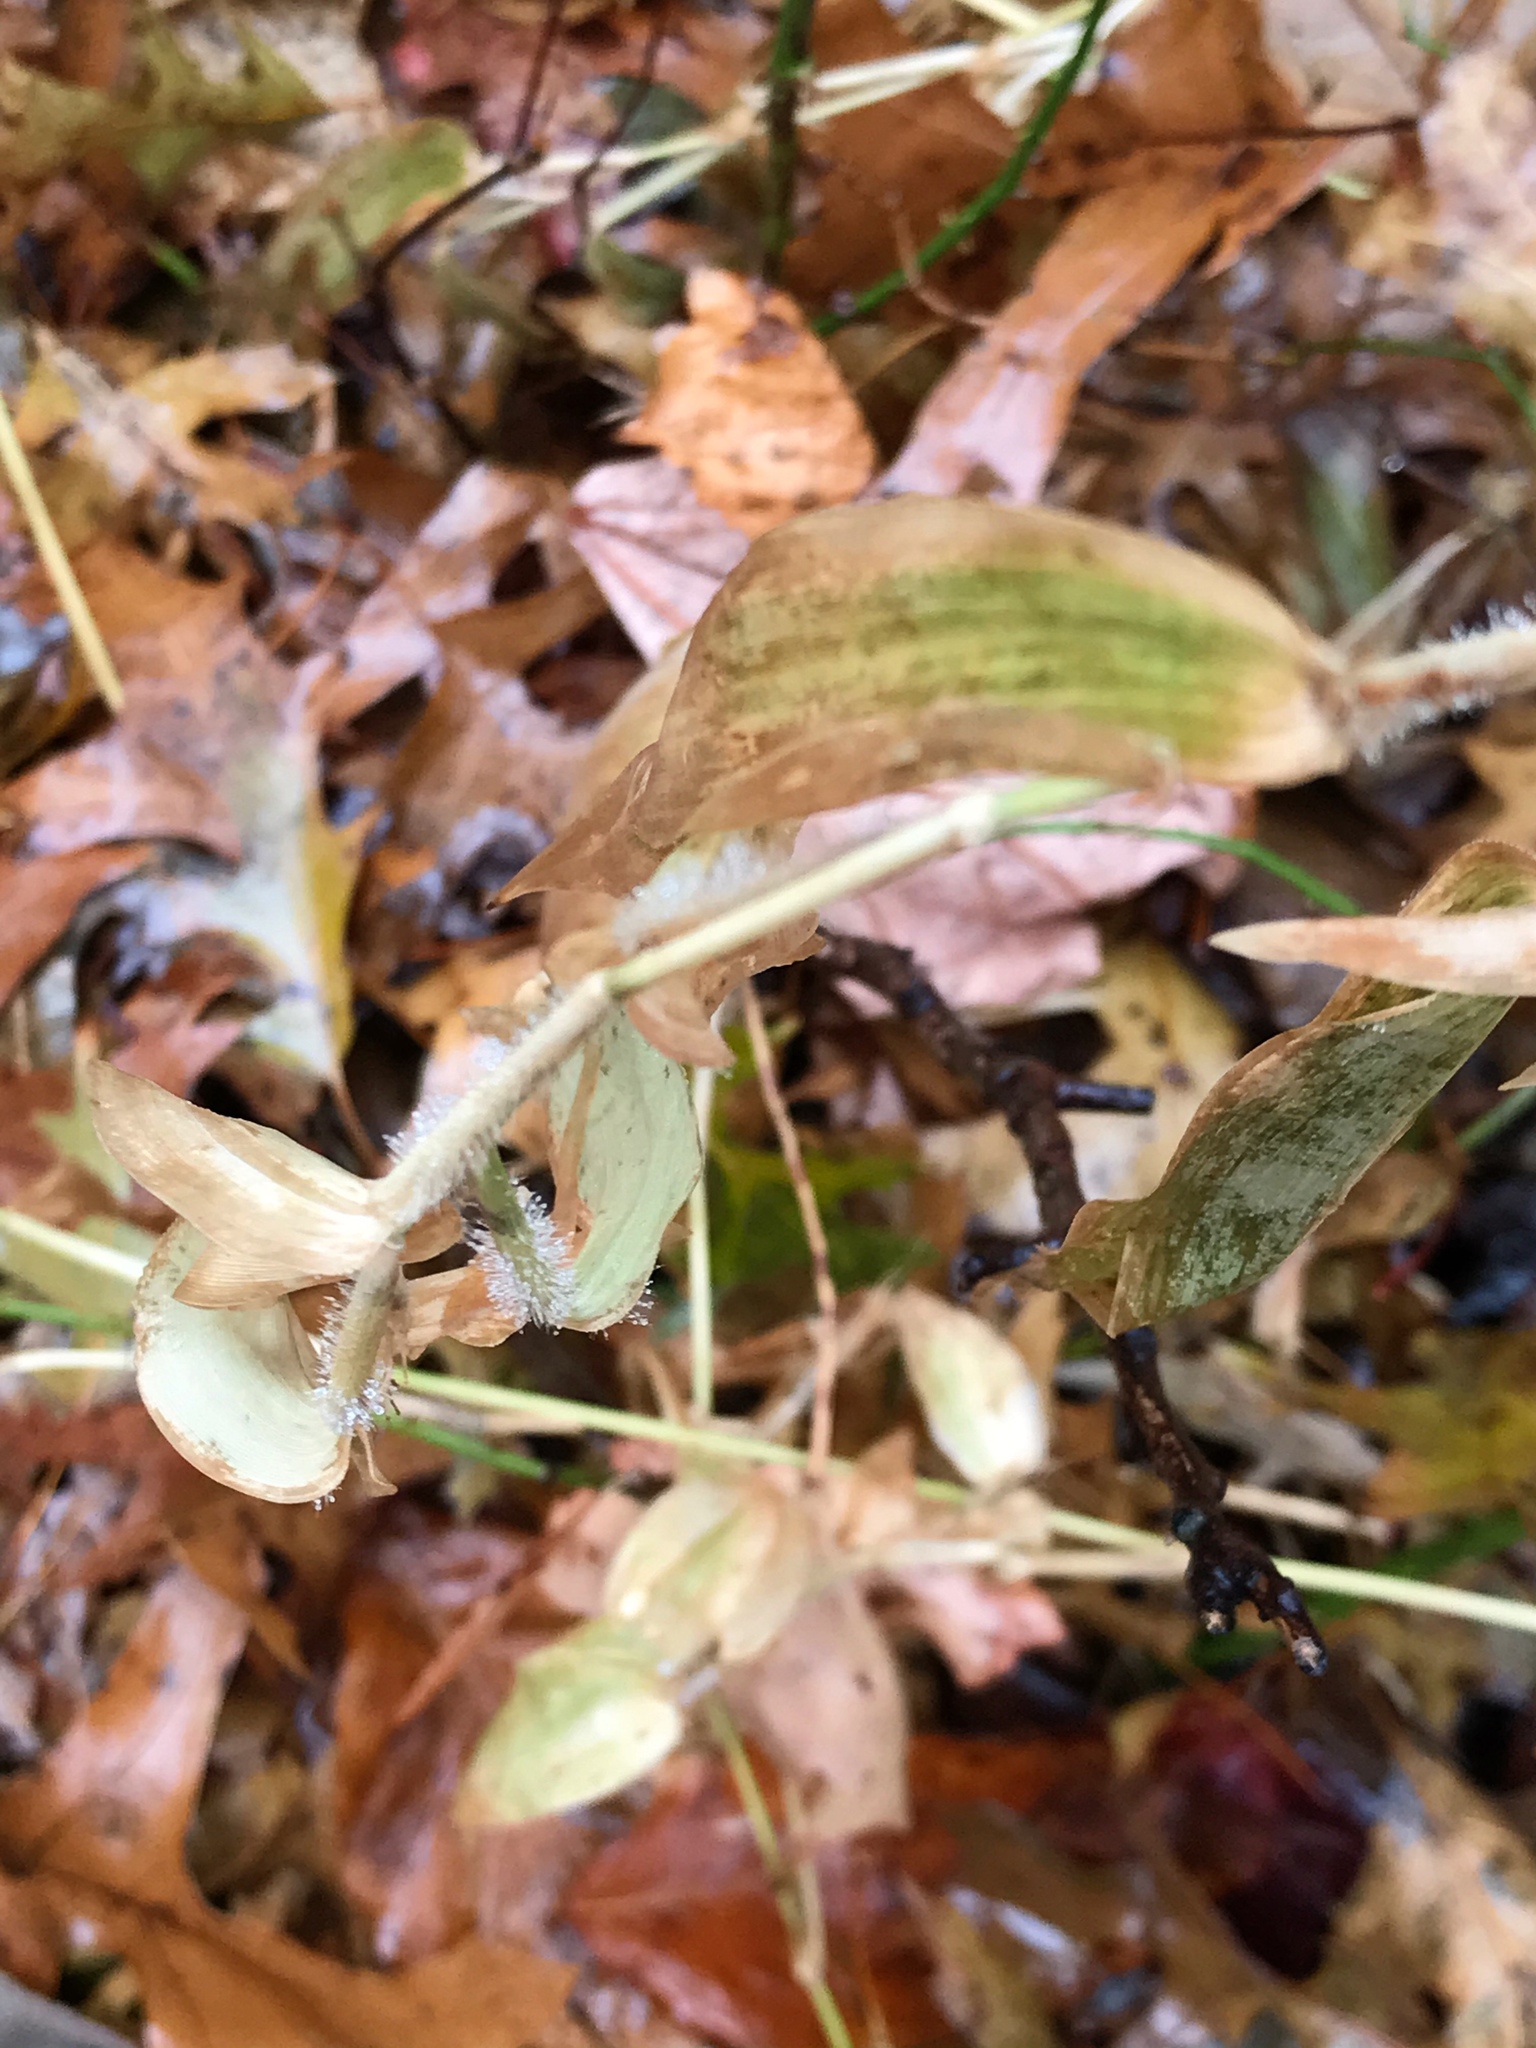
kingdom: Plantae
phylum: Tracheophyta
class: Liliopsida
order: Poales
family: Poaceae
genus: Dichanthelium
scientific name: Dichanthelium clandestinum
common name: Deer-tongue grass
